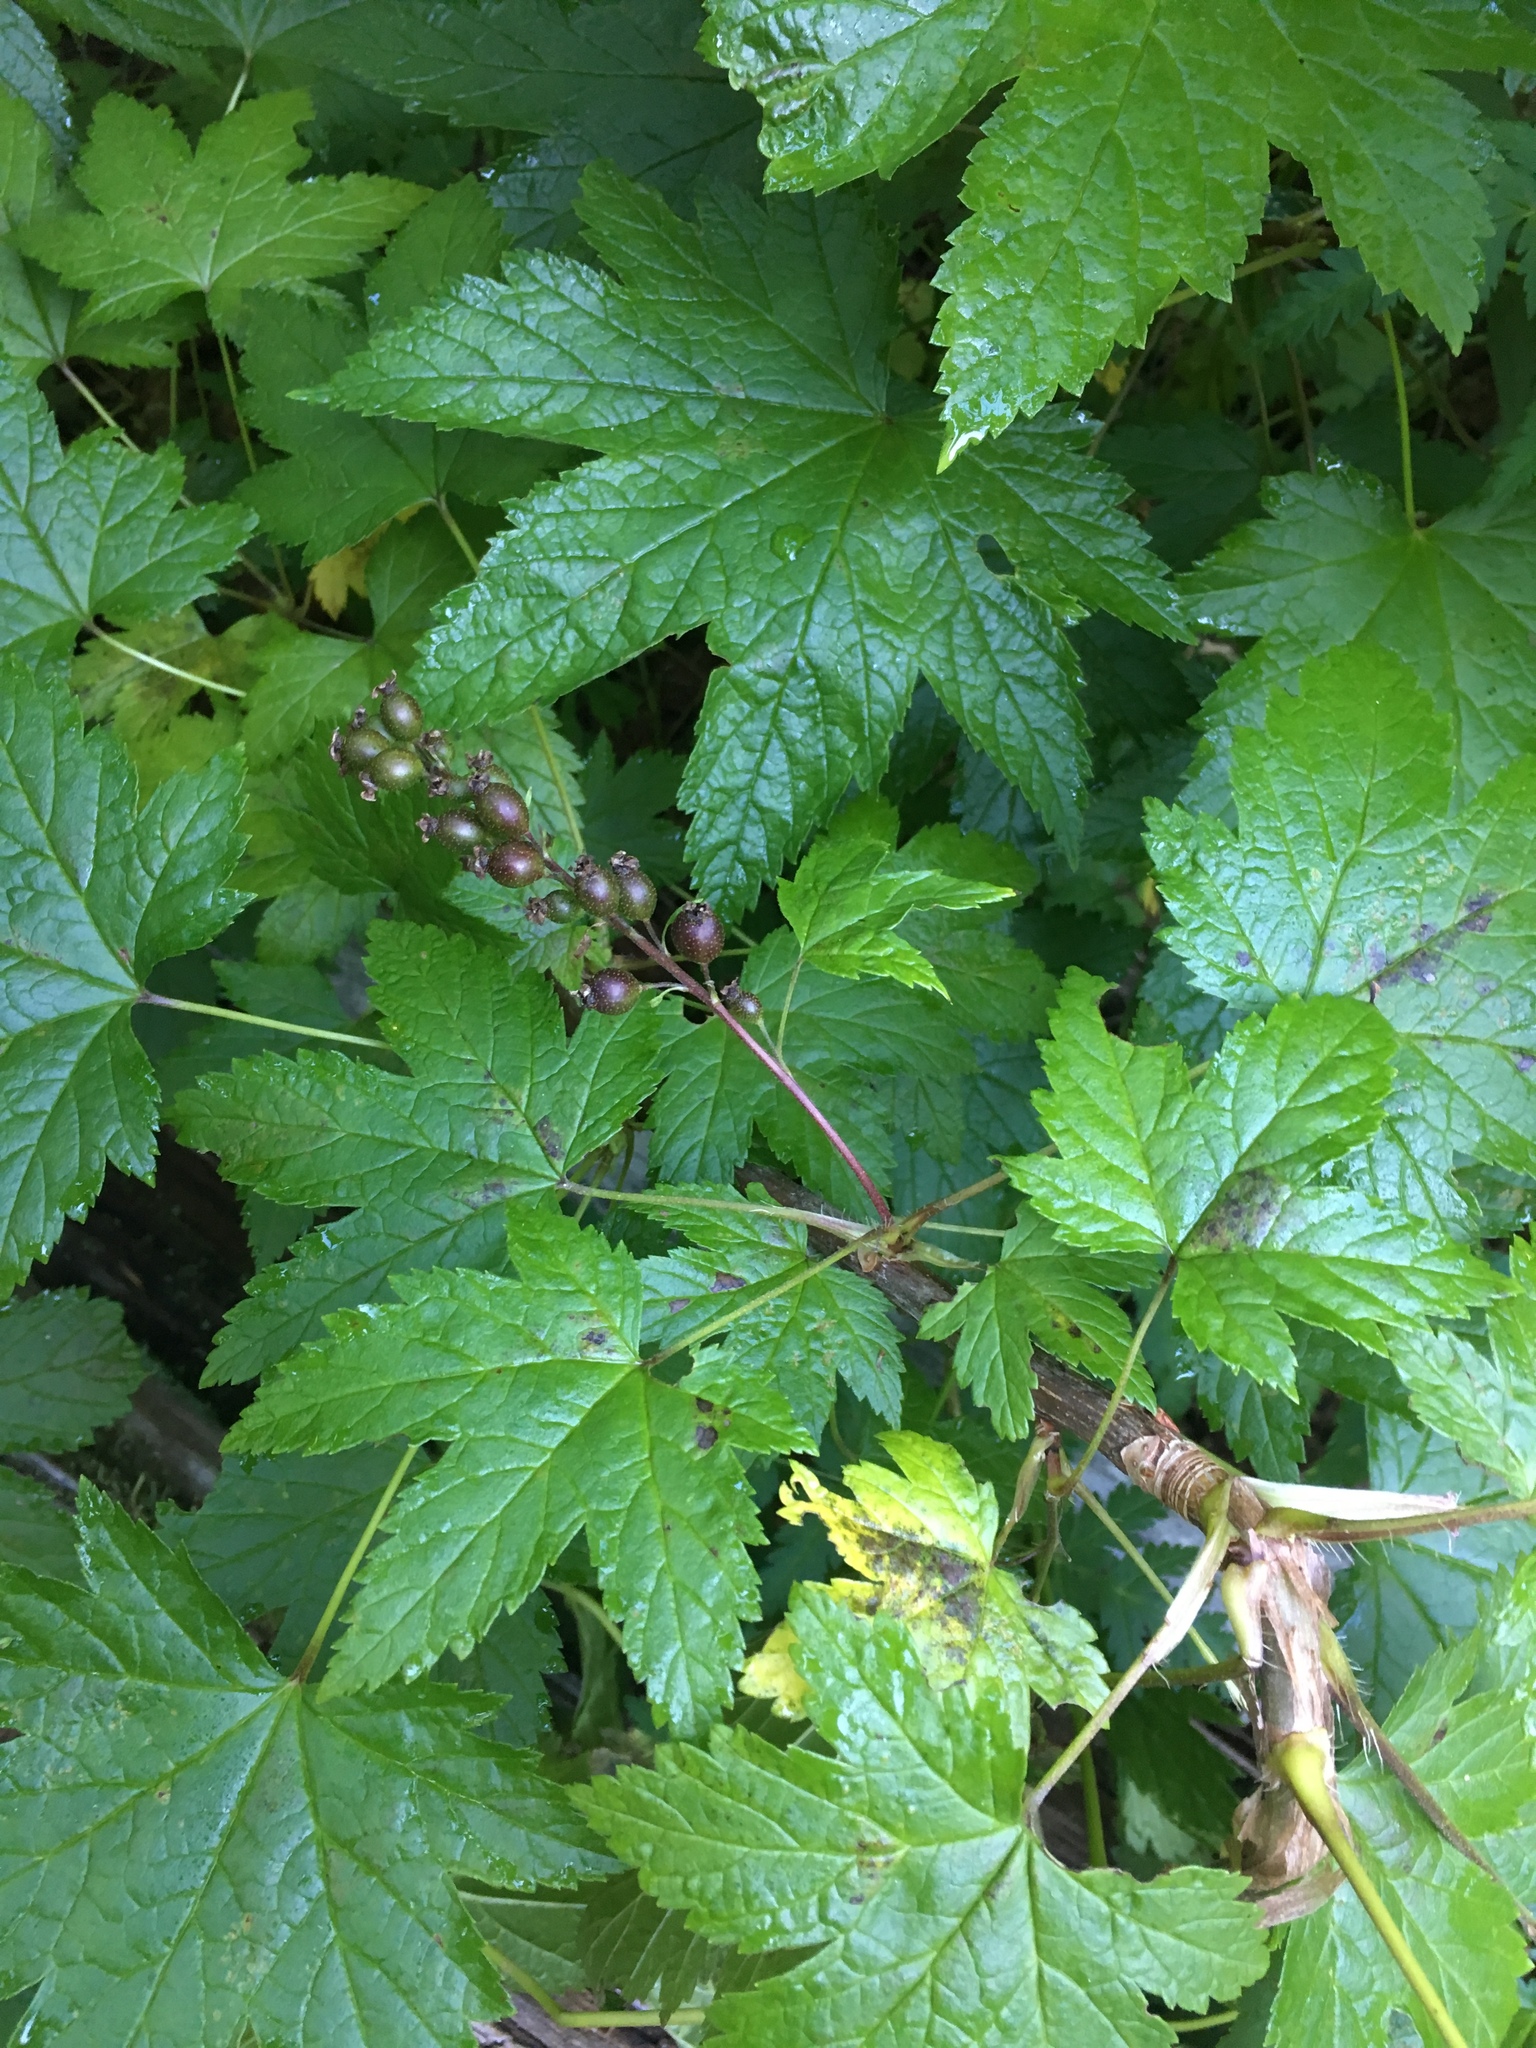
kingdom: Plantae
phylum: Tracheophyta
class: Magnoliopsida
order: Saxifragales
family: Grossulariaceae
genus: Ribes
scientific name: Ribes bracteosum
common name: California black currant
